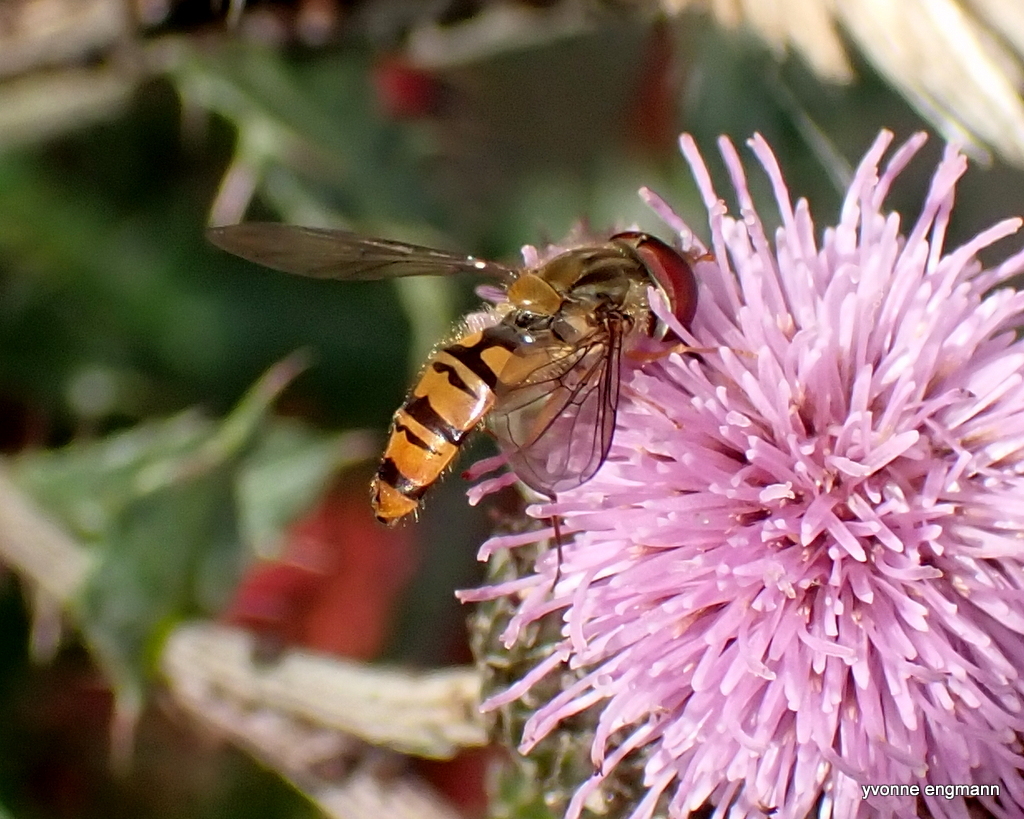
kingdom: Animalia
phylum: Arthropoda
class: Insecta
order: Diptera
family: Syrphidae
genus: Episyrphus
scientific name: Episyrphus balteatus
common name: Marmalade hoverfly
